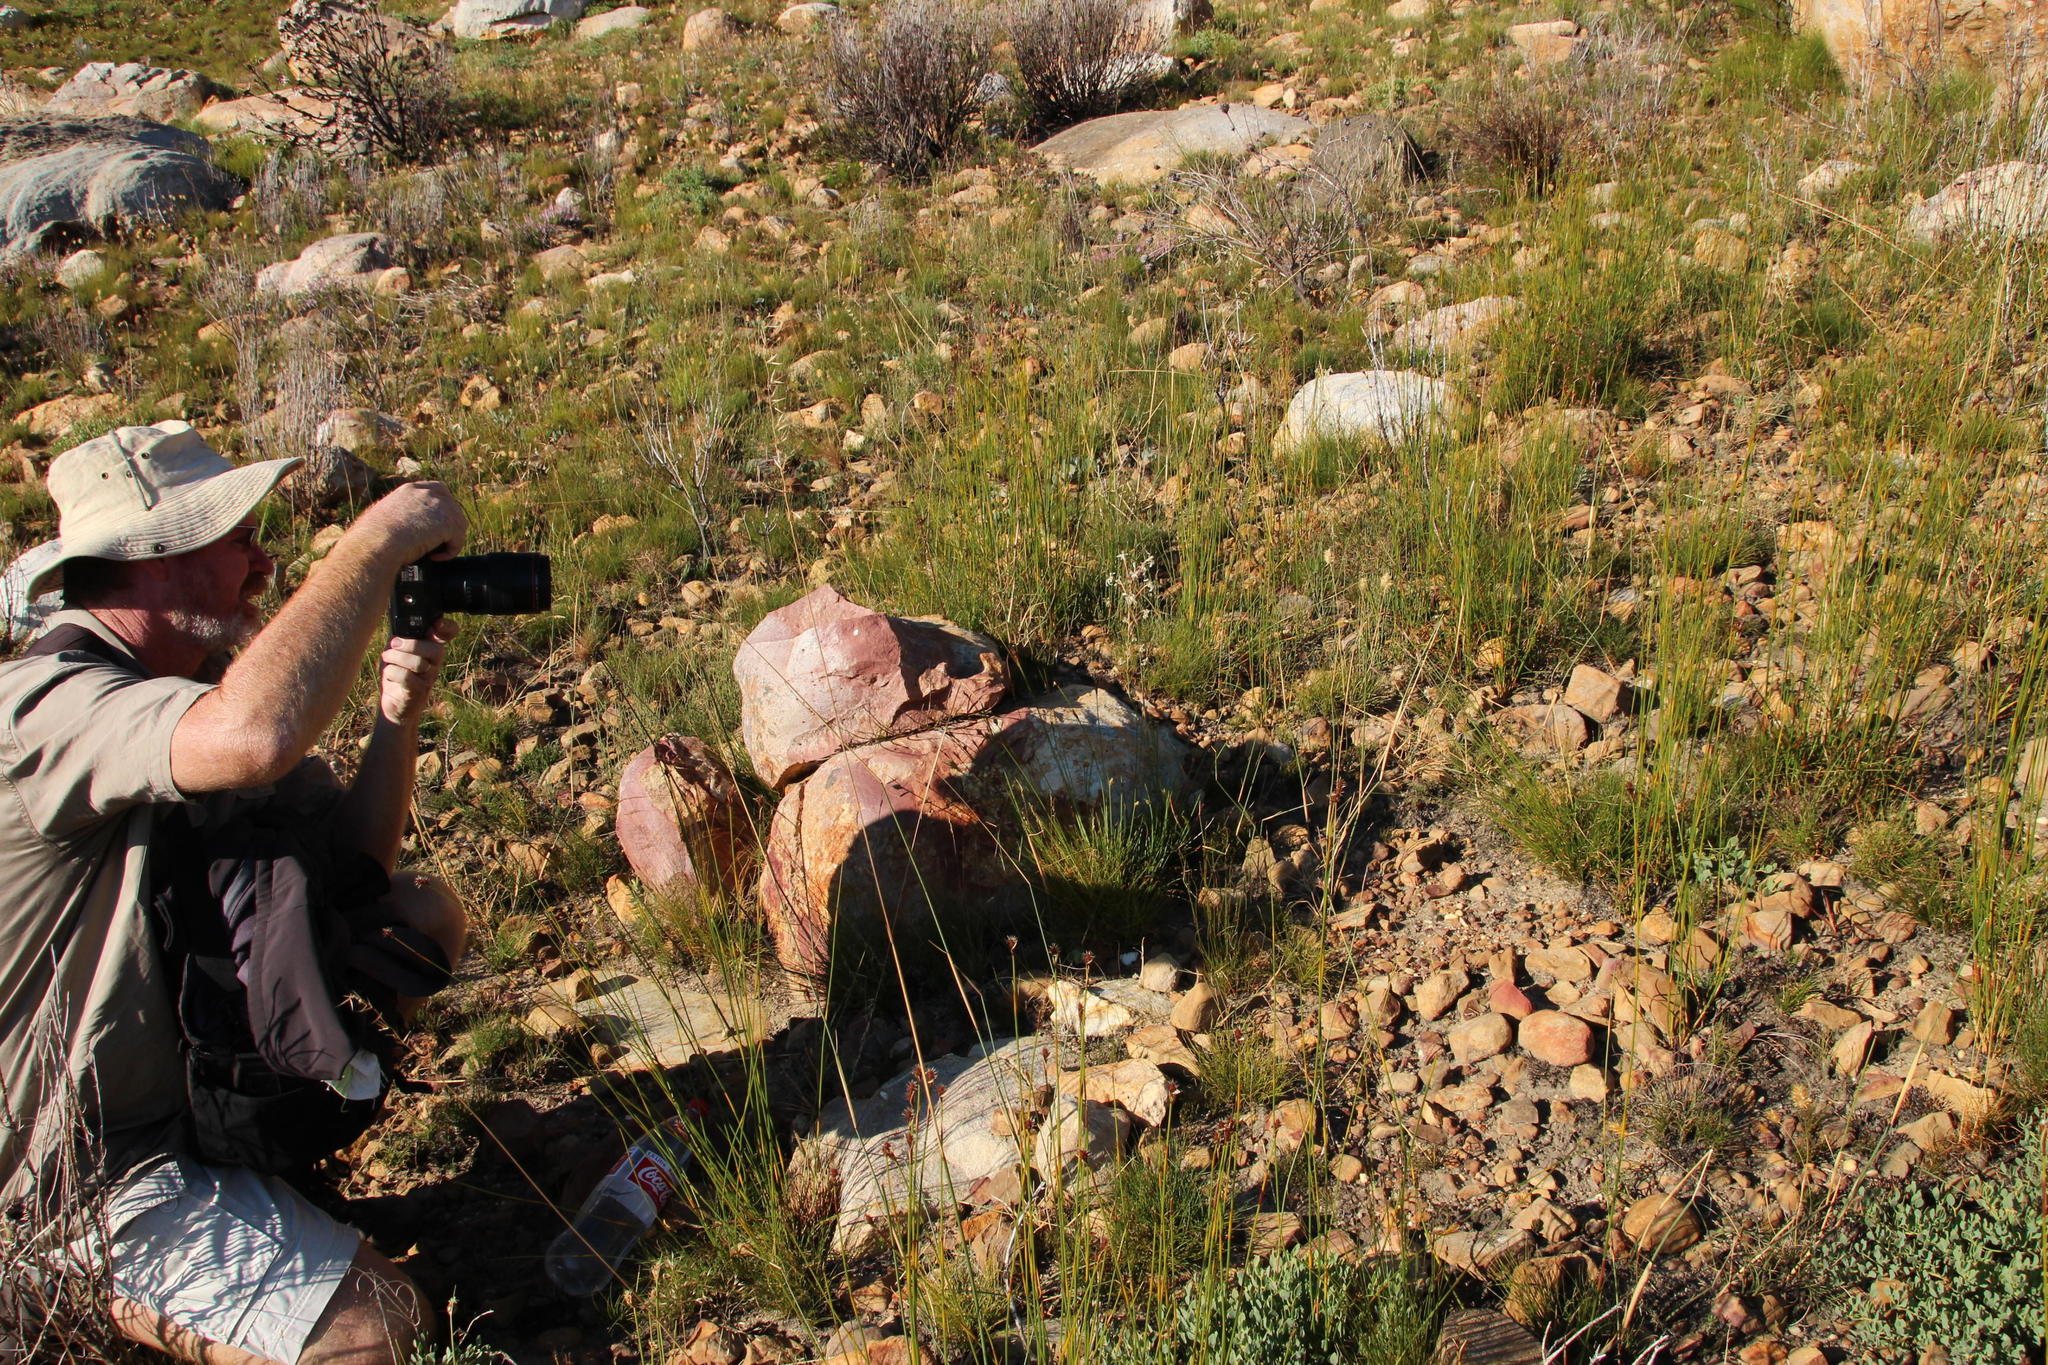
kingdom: Plantae
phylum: Tracheophyta
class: Liliopsida
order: Asparagales
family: Iridaceae
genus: Tritoniopsis
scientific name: Tritoniopsis nervosa
